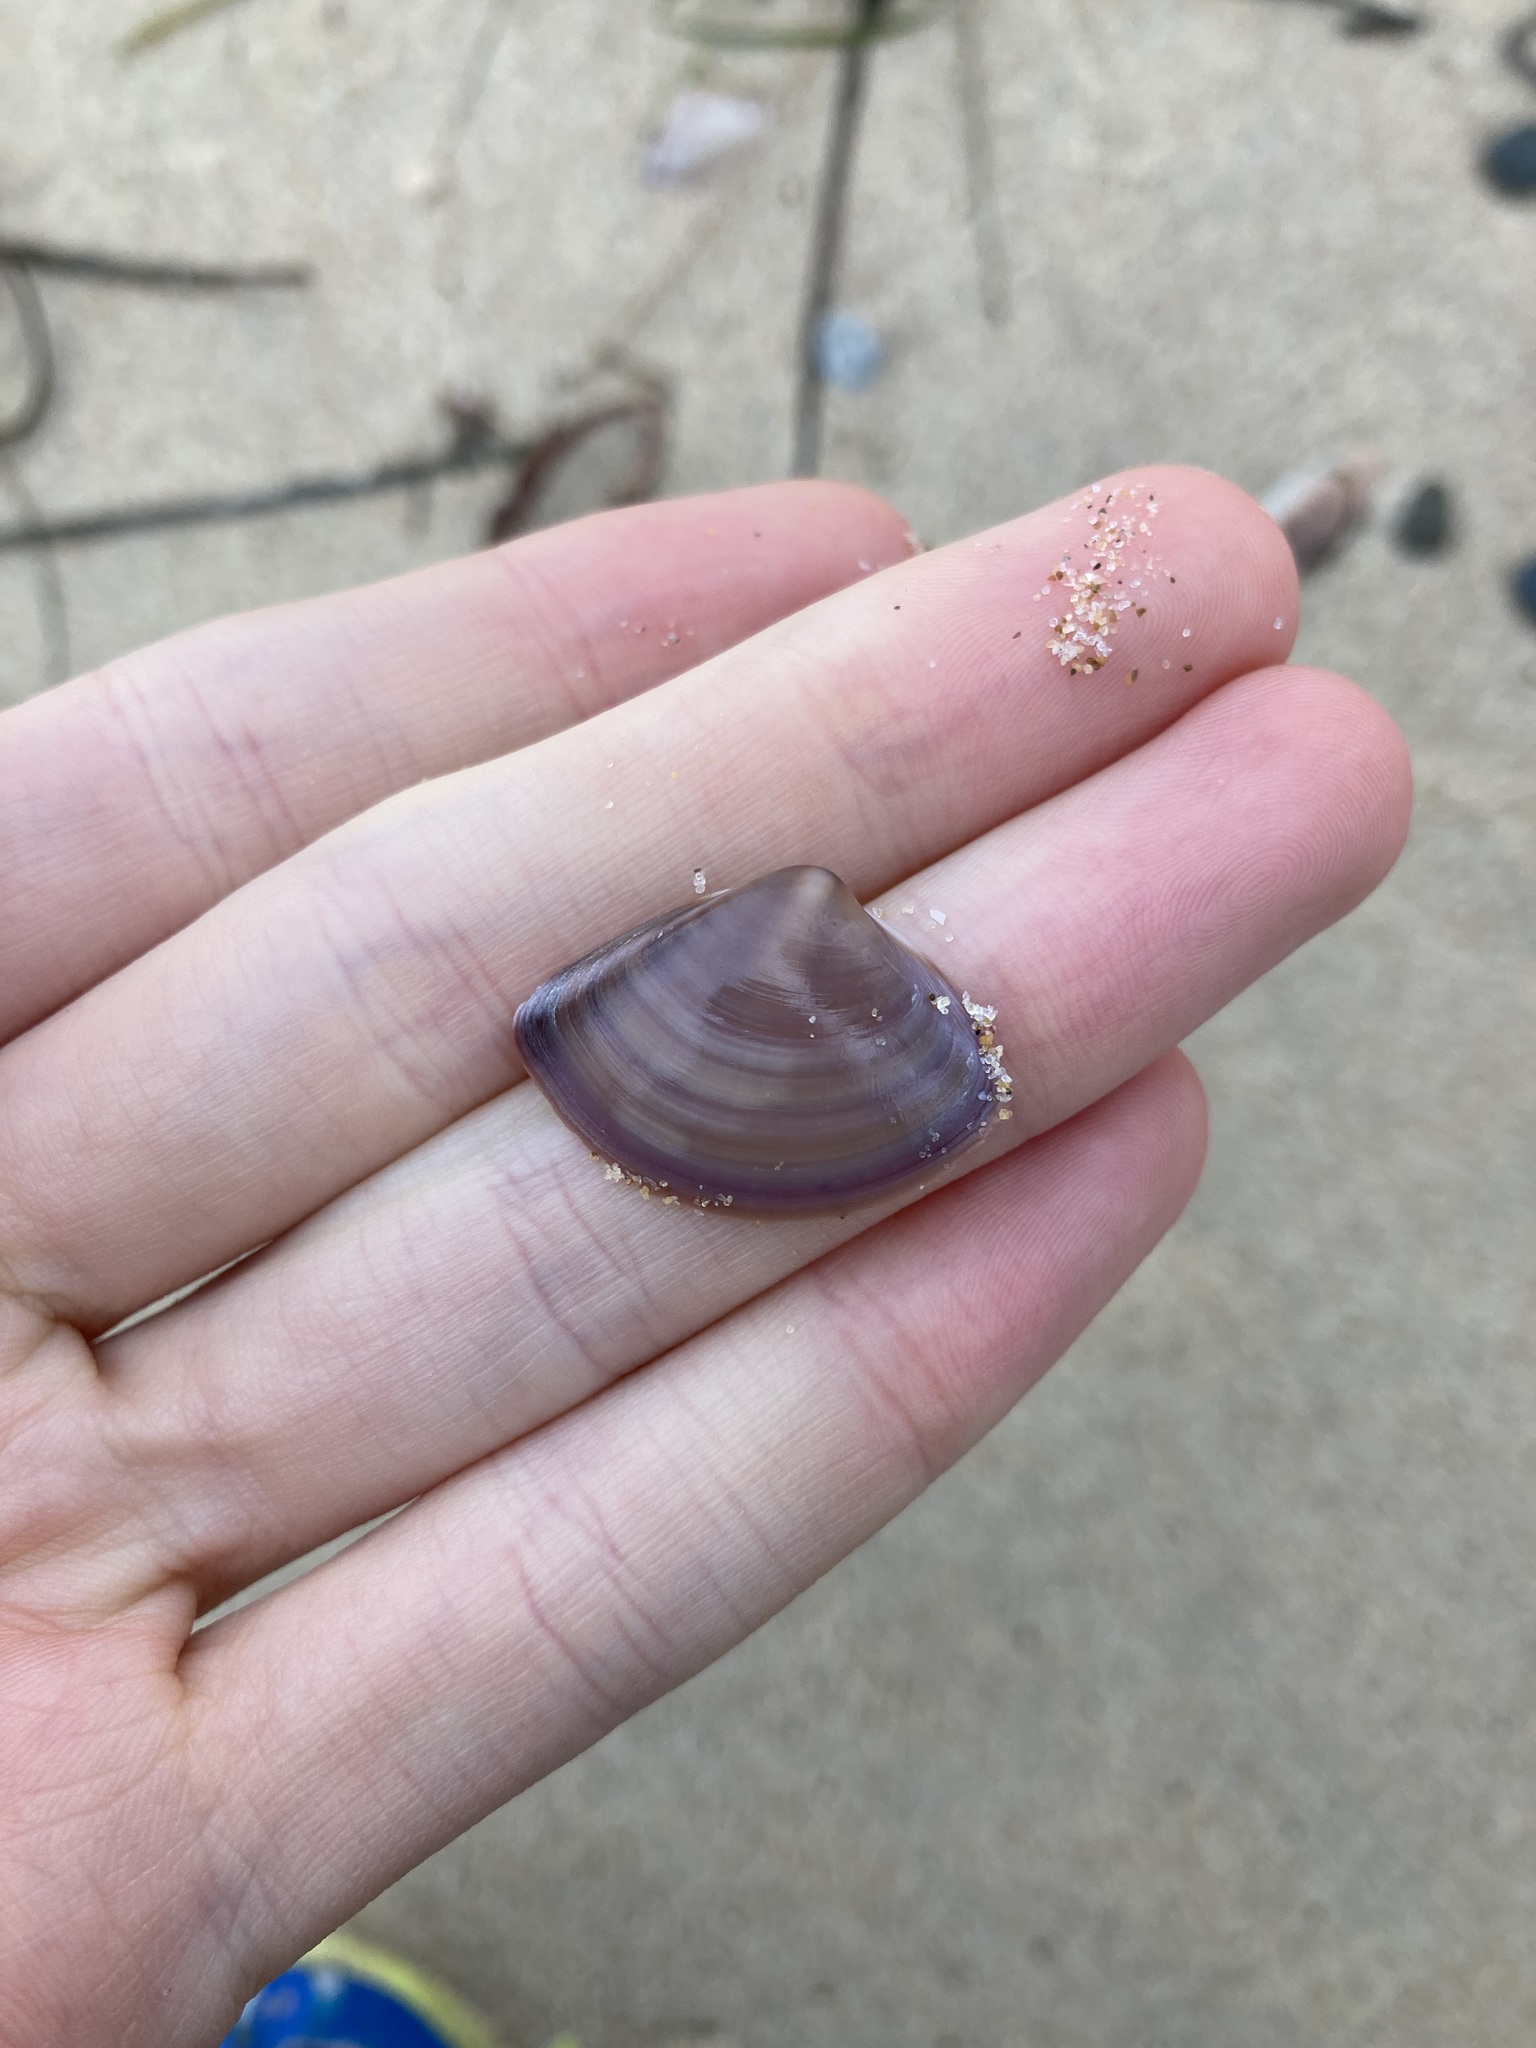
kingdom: Animalia
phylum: Mollusca
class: Bivalvia
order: Venerida
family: Mactridae
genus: Austromactra
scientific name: Austromactra contraria
